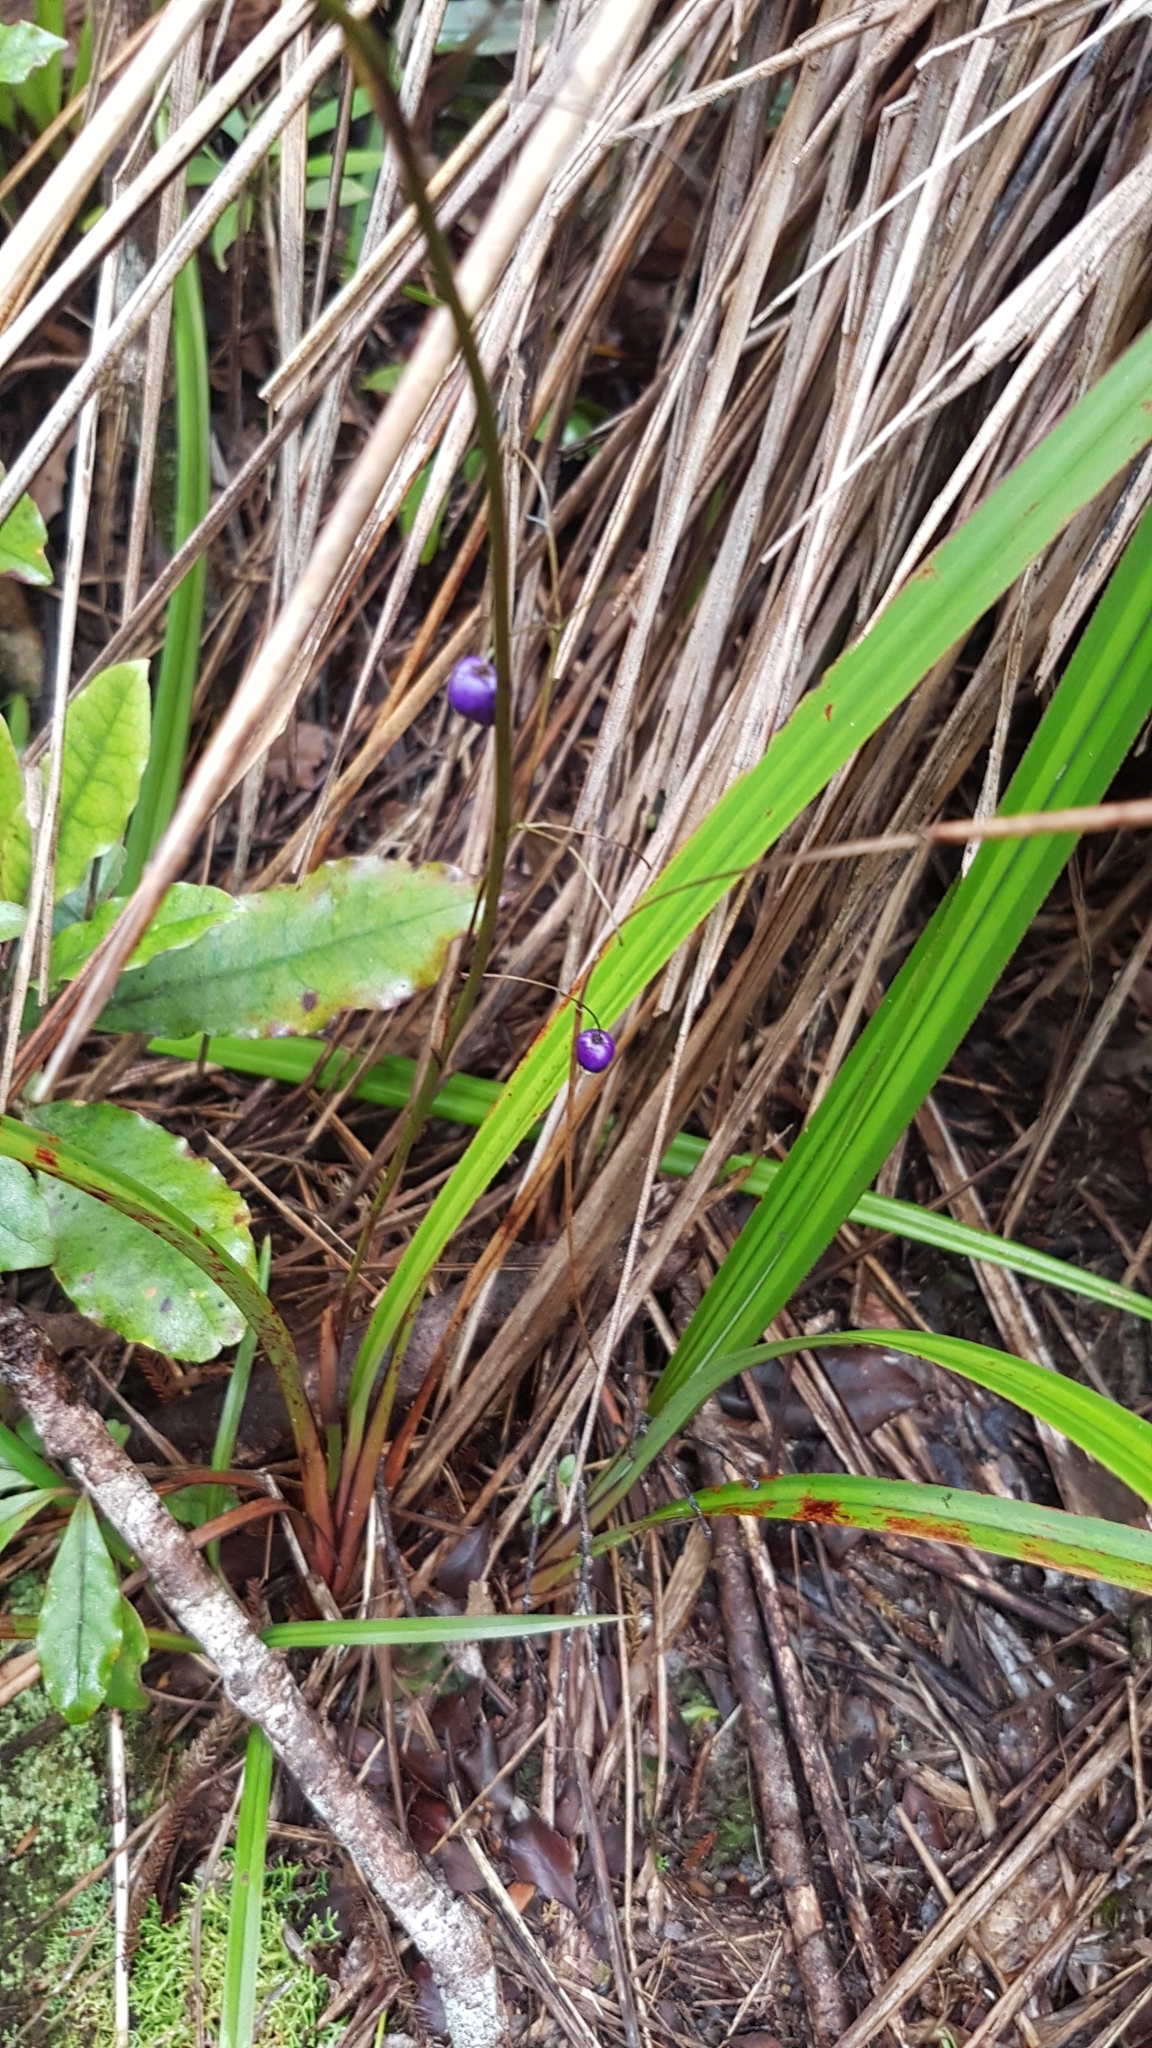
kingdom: Plantae
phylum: Tracheophyta
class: Liliopsida
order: Asparagales
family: Asphodelaceae
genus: Dianella
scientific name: Dianella nigra
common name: New zealand-blueberry
